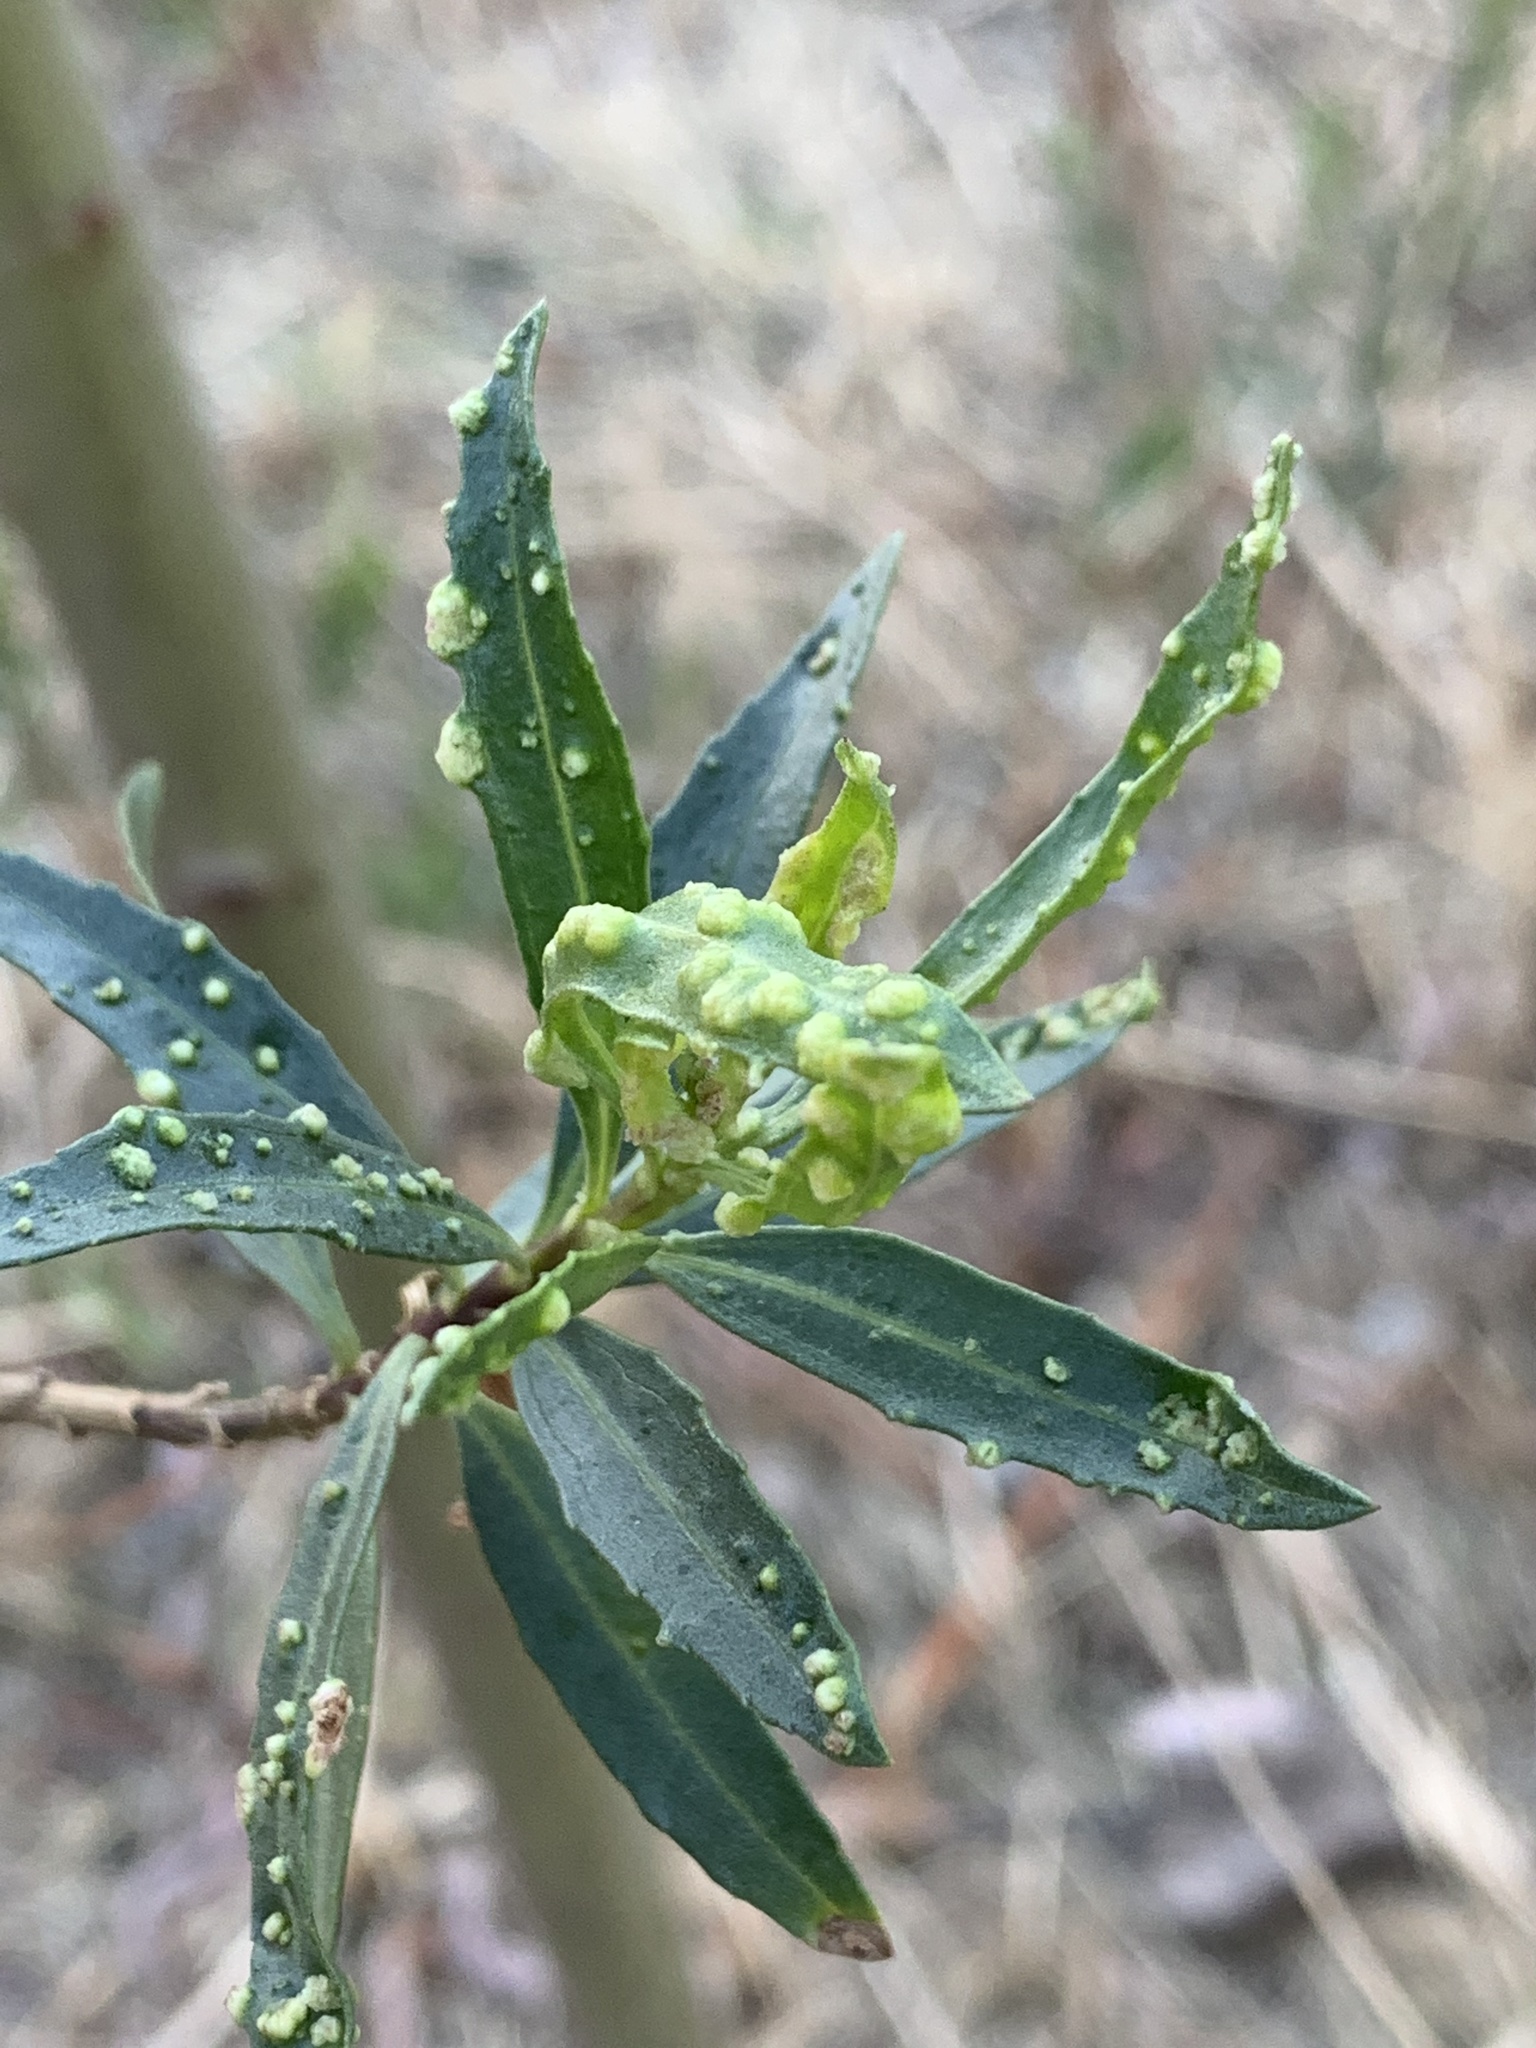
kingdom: Animalia
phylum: Arthropoda
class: Arachnida
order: Trombidiformes
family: Eriophyidae
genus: Aceria
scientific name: Aceria
